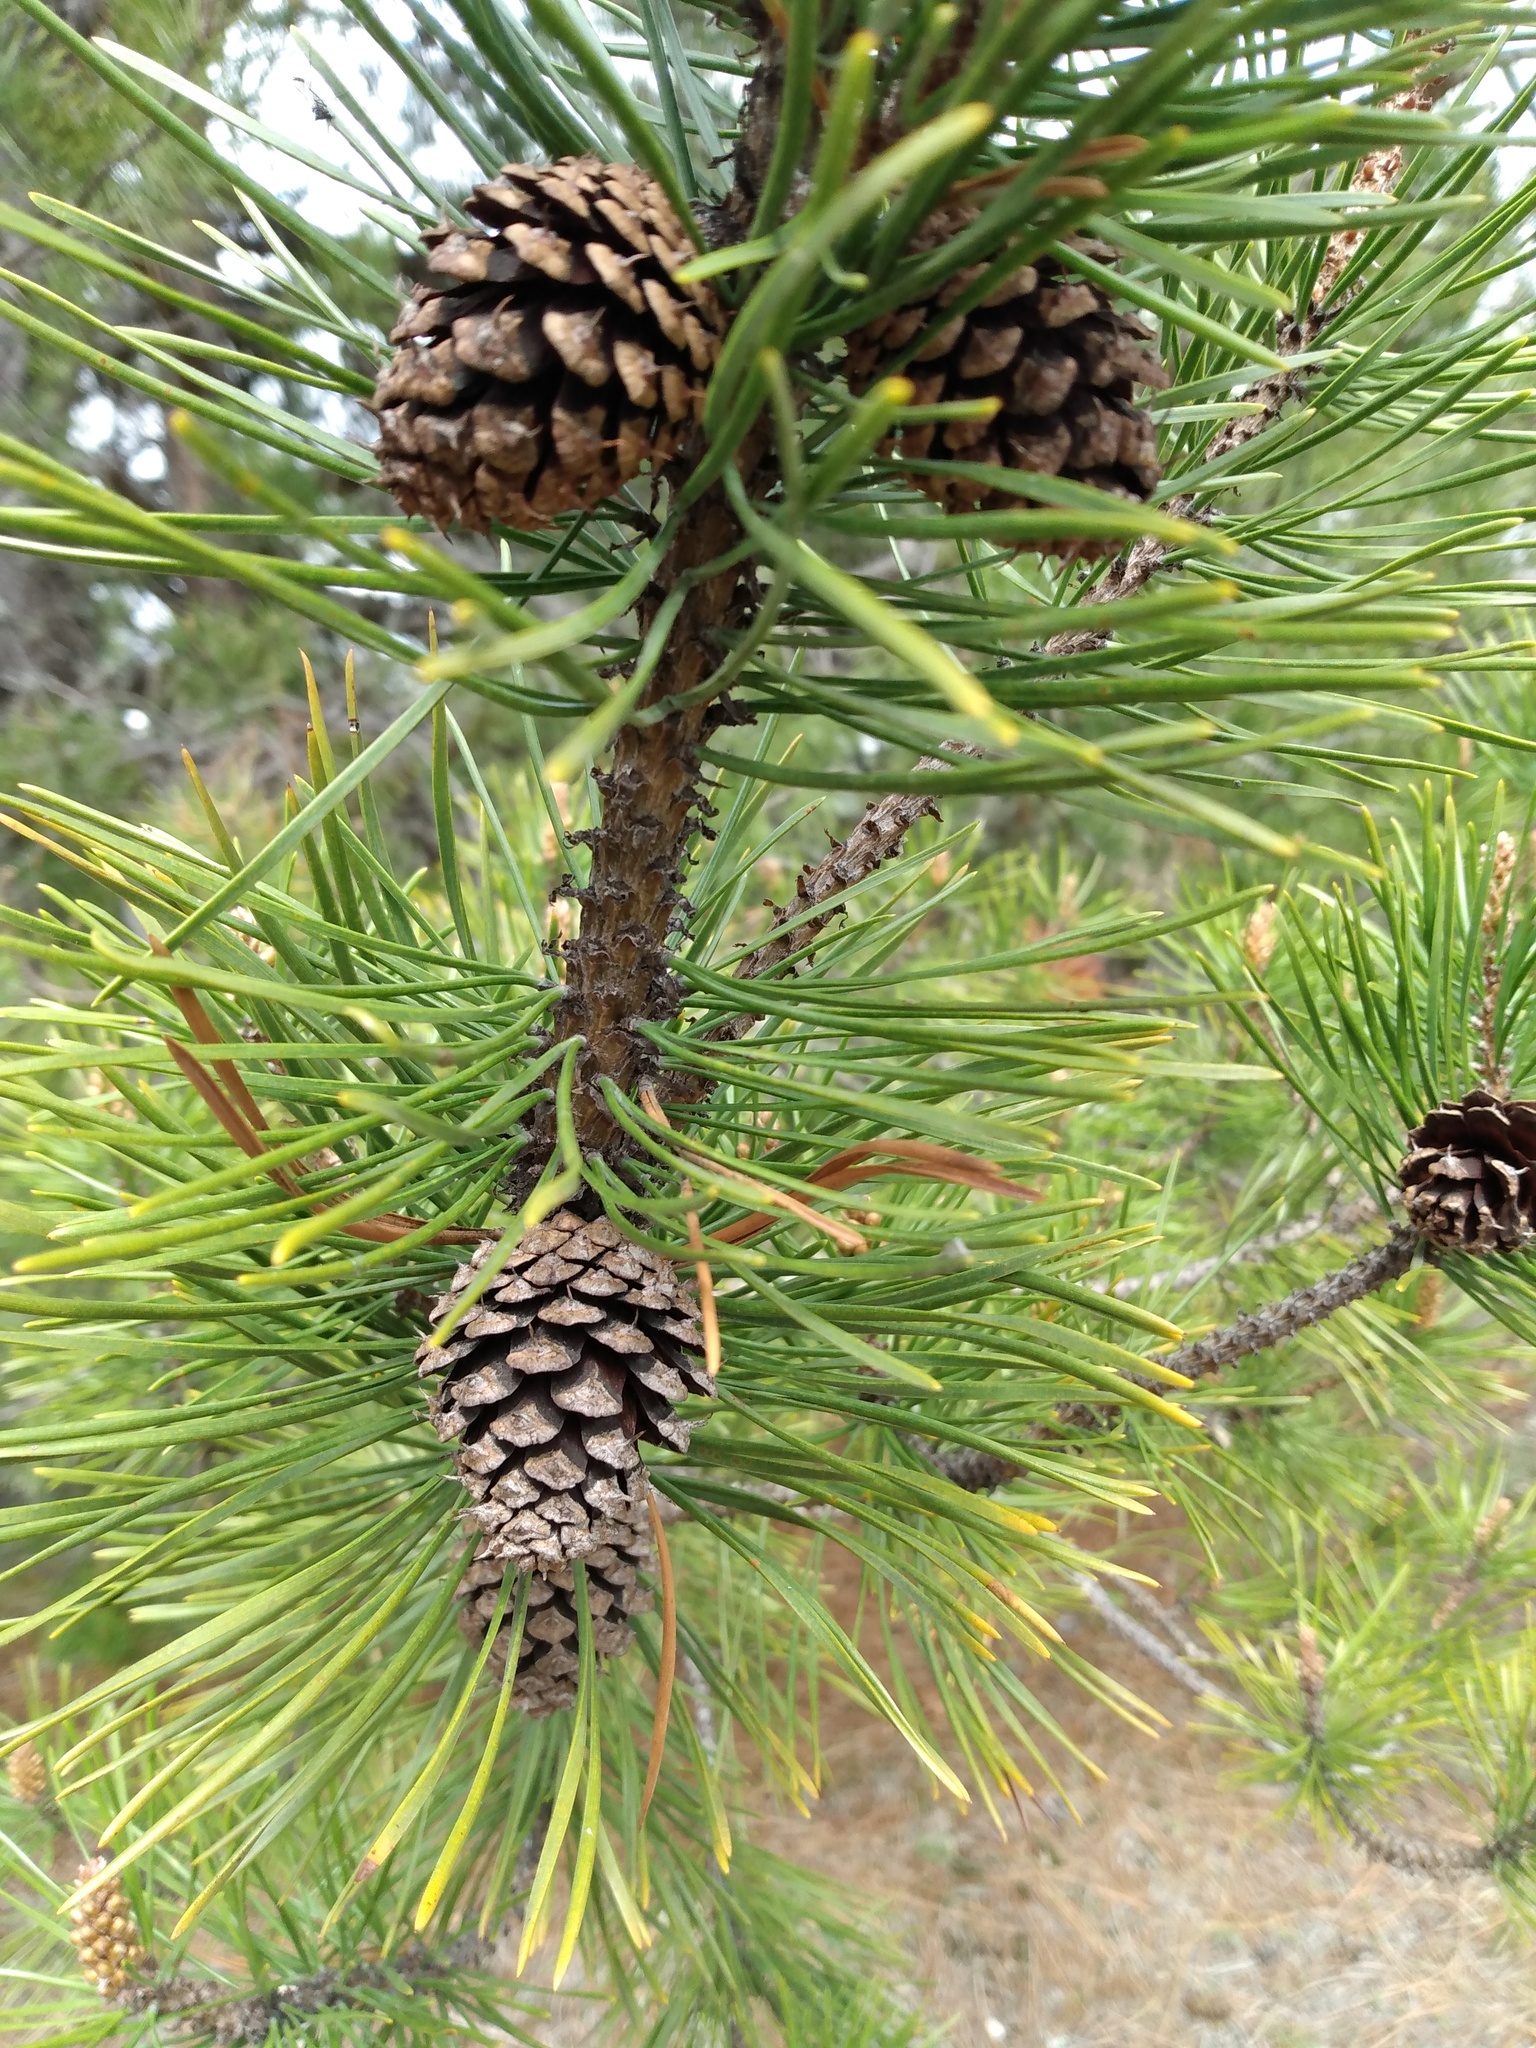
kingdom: Plantae
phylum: Tracheophyta
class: Pinopsida
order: Pinales
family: Pinaceae
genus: Pinus
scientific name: Pinus contorta
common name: Lodgepole pine
